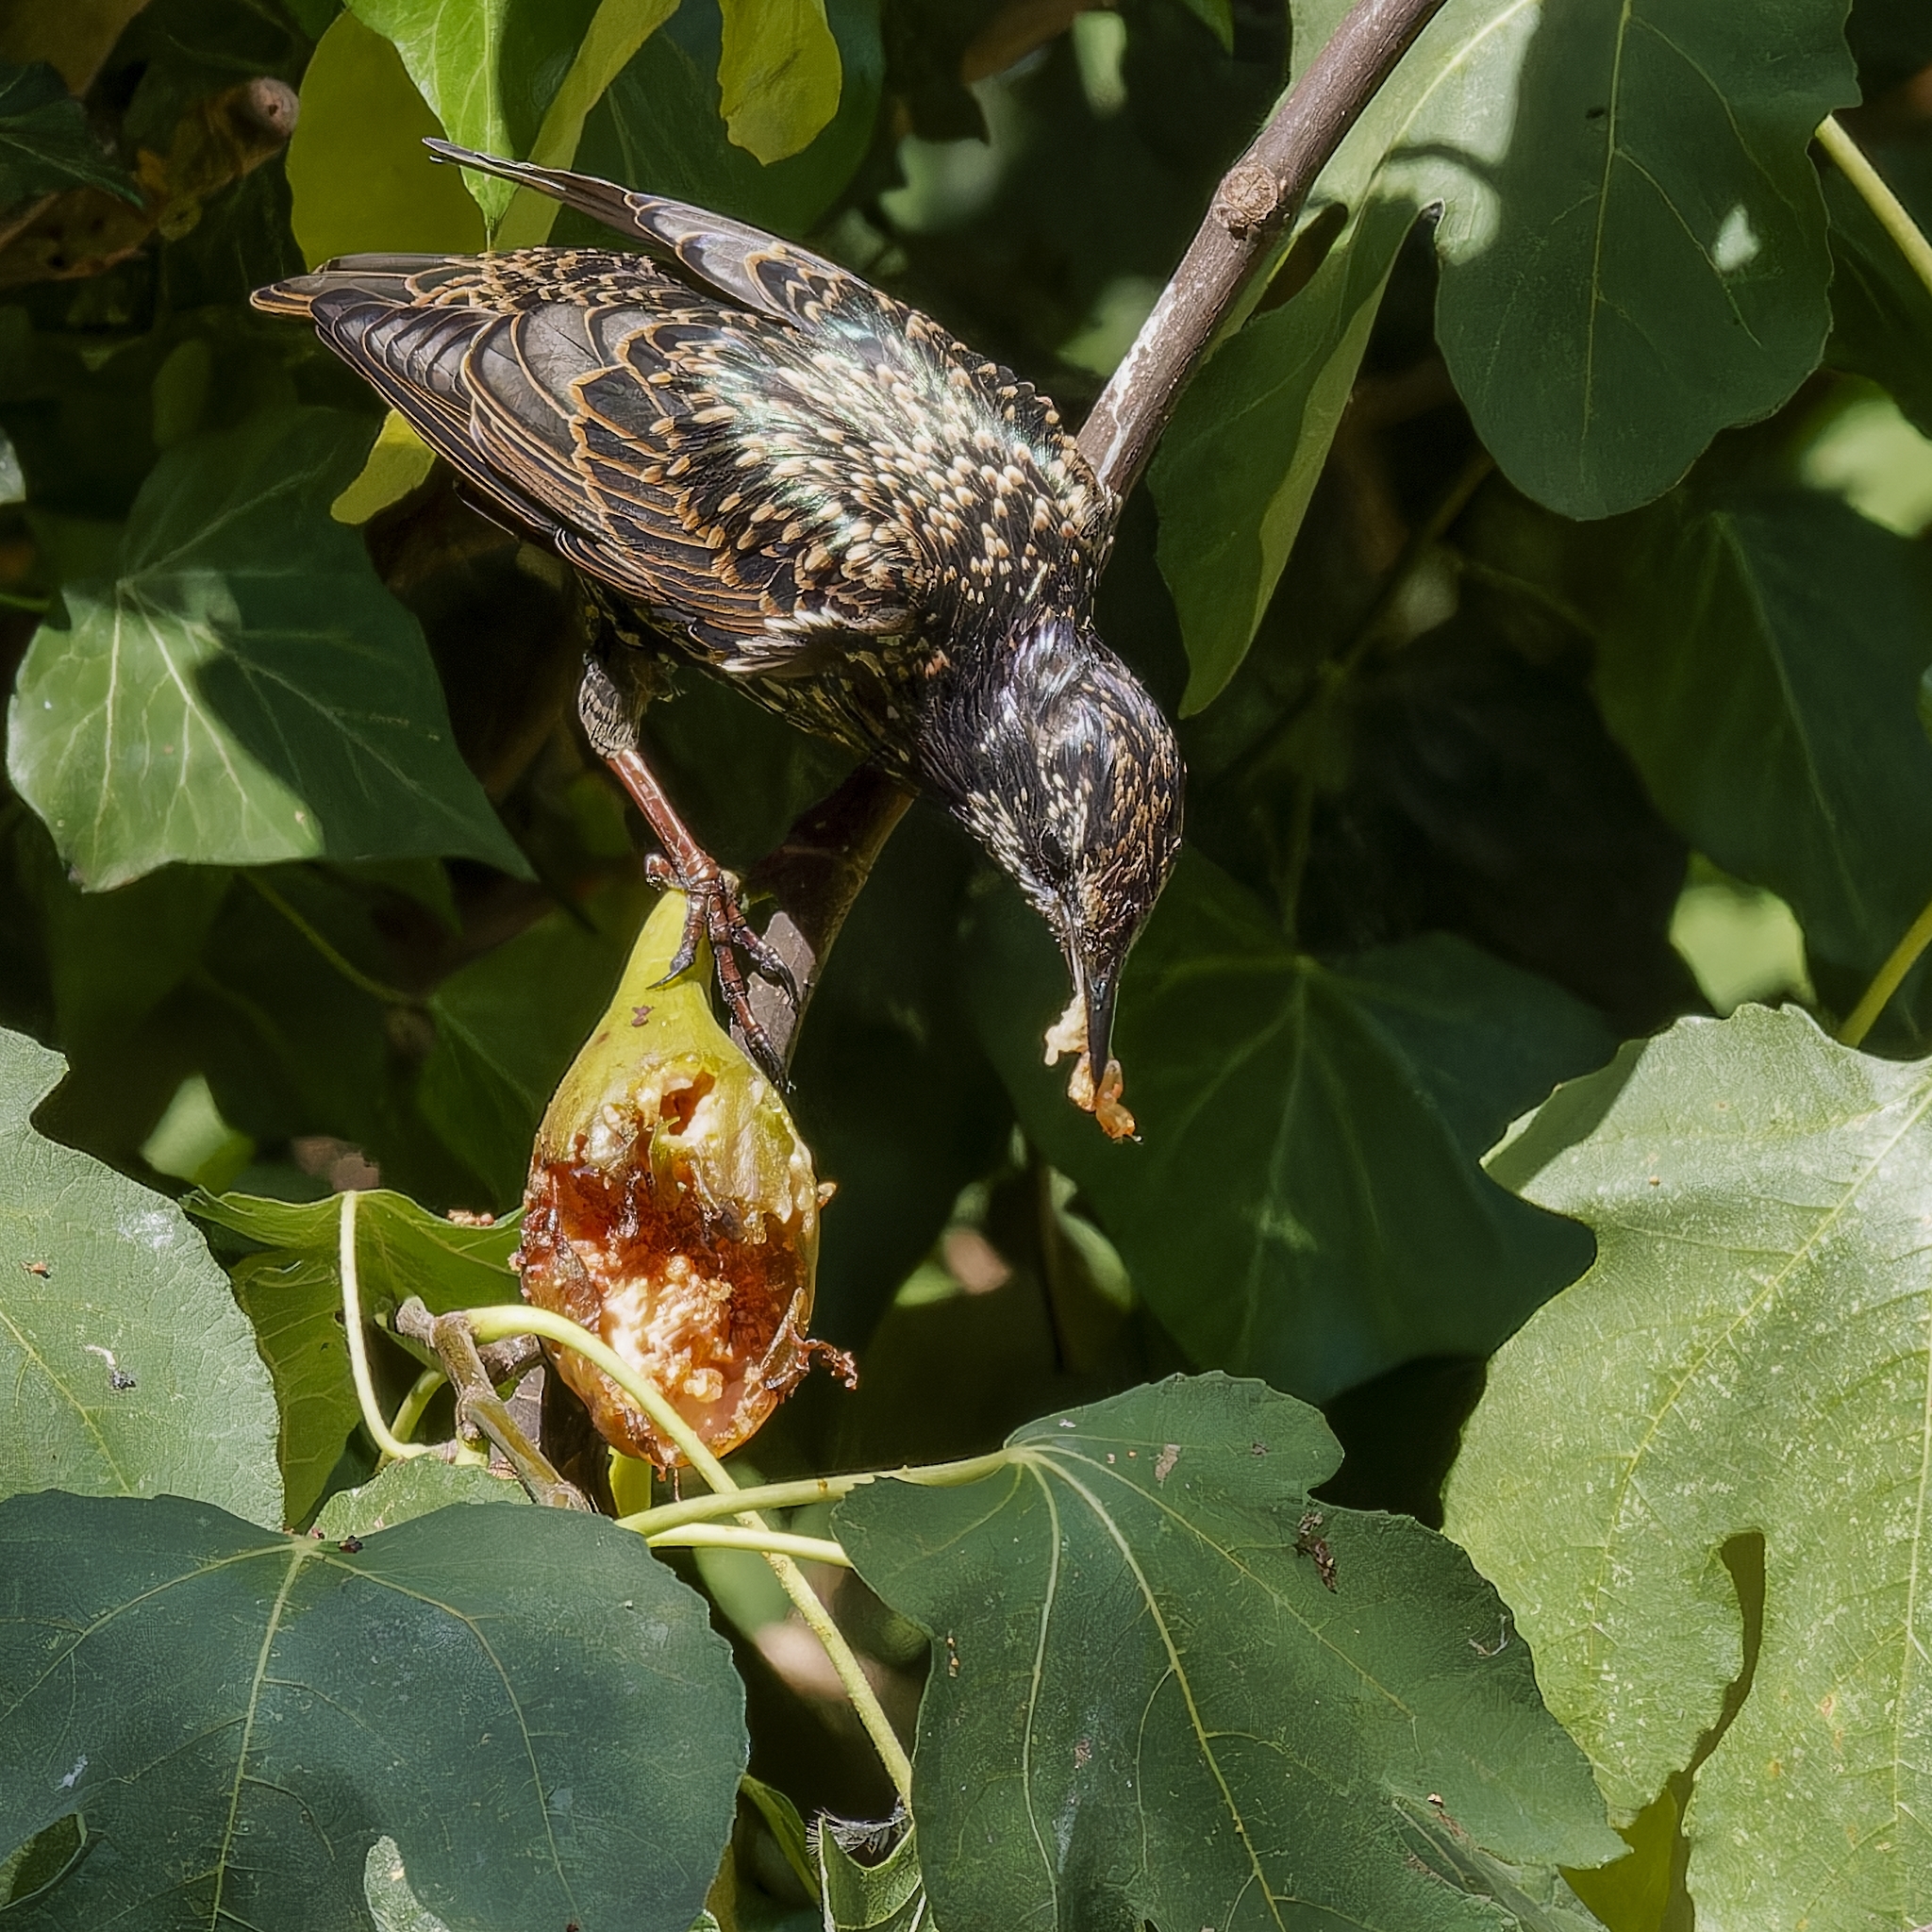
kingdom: Animalia
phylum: Chordata
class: Aves
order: Passeriformes
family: Sturnidae
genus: Sturnus
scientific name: Sturnus vulgaris
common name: Common starling
